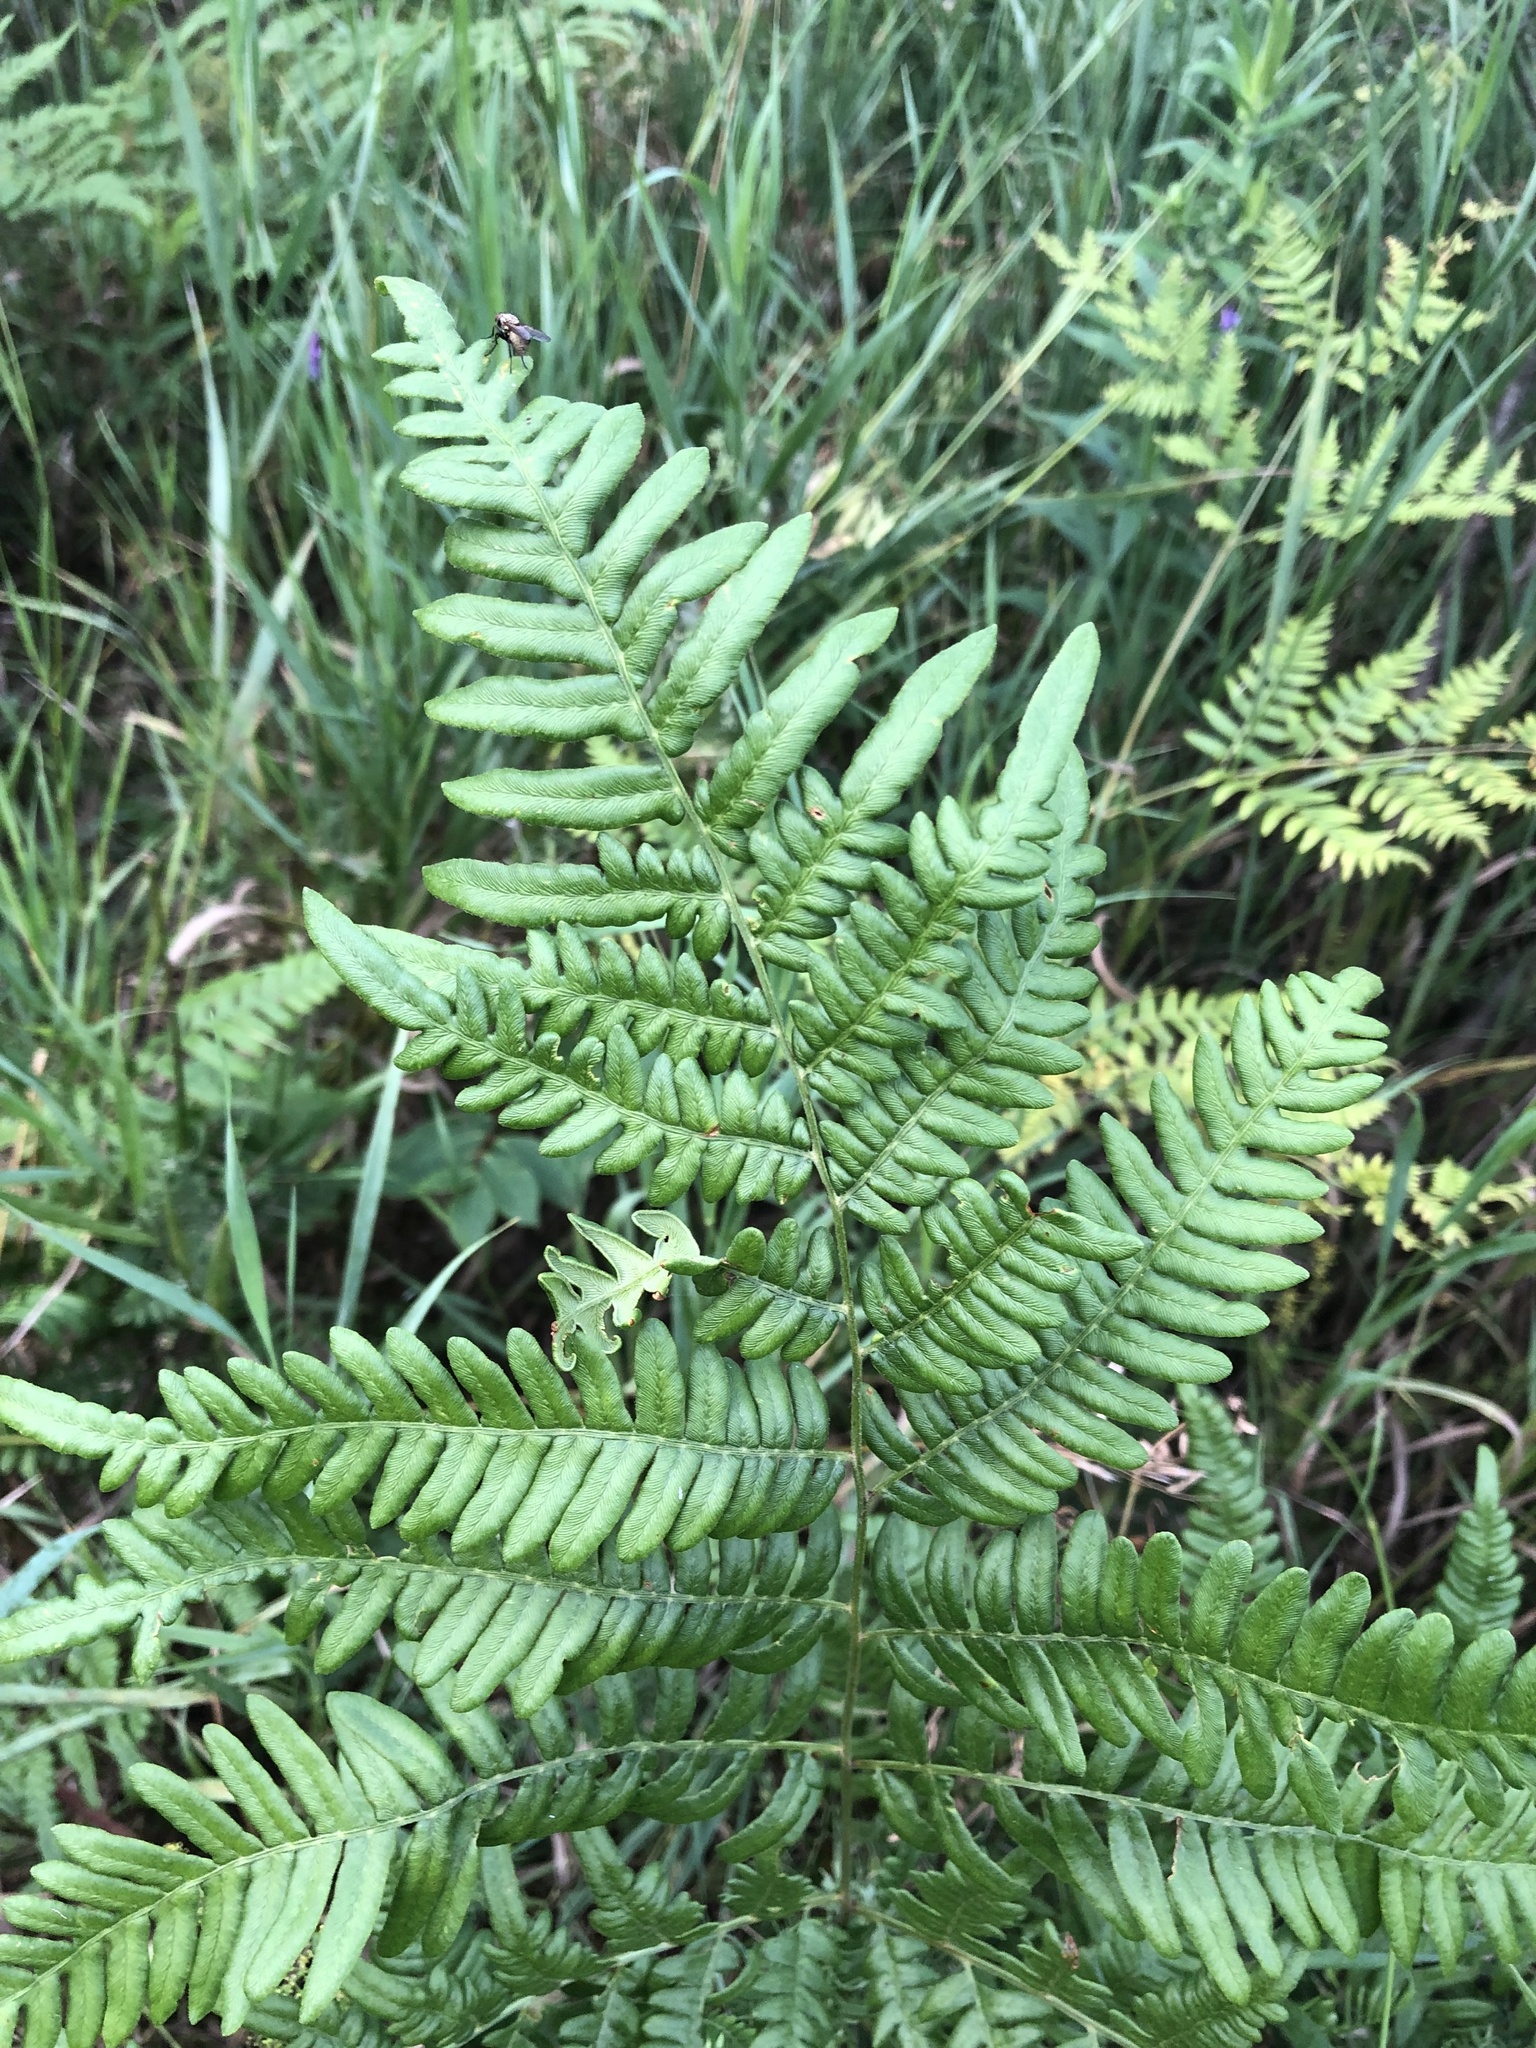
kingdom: Plantae
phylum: Tracheophyta
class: Polypodiopsida
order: Polypodiales
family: Dennstaedtiaceae
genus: Pteridium
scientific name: Pteridium aquilinum
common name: Bracken
